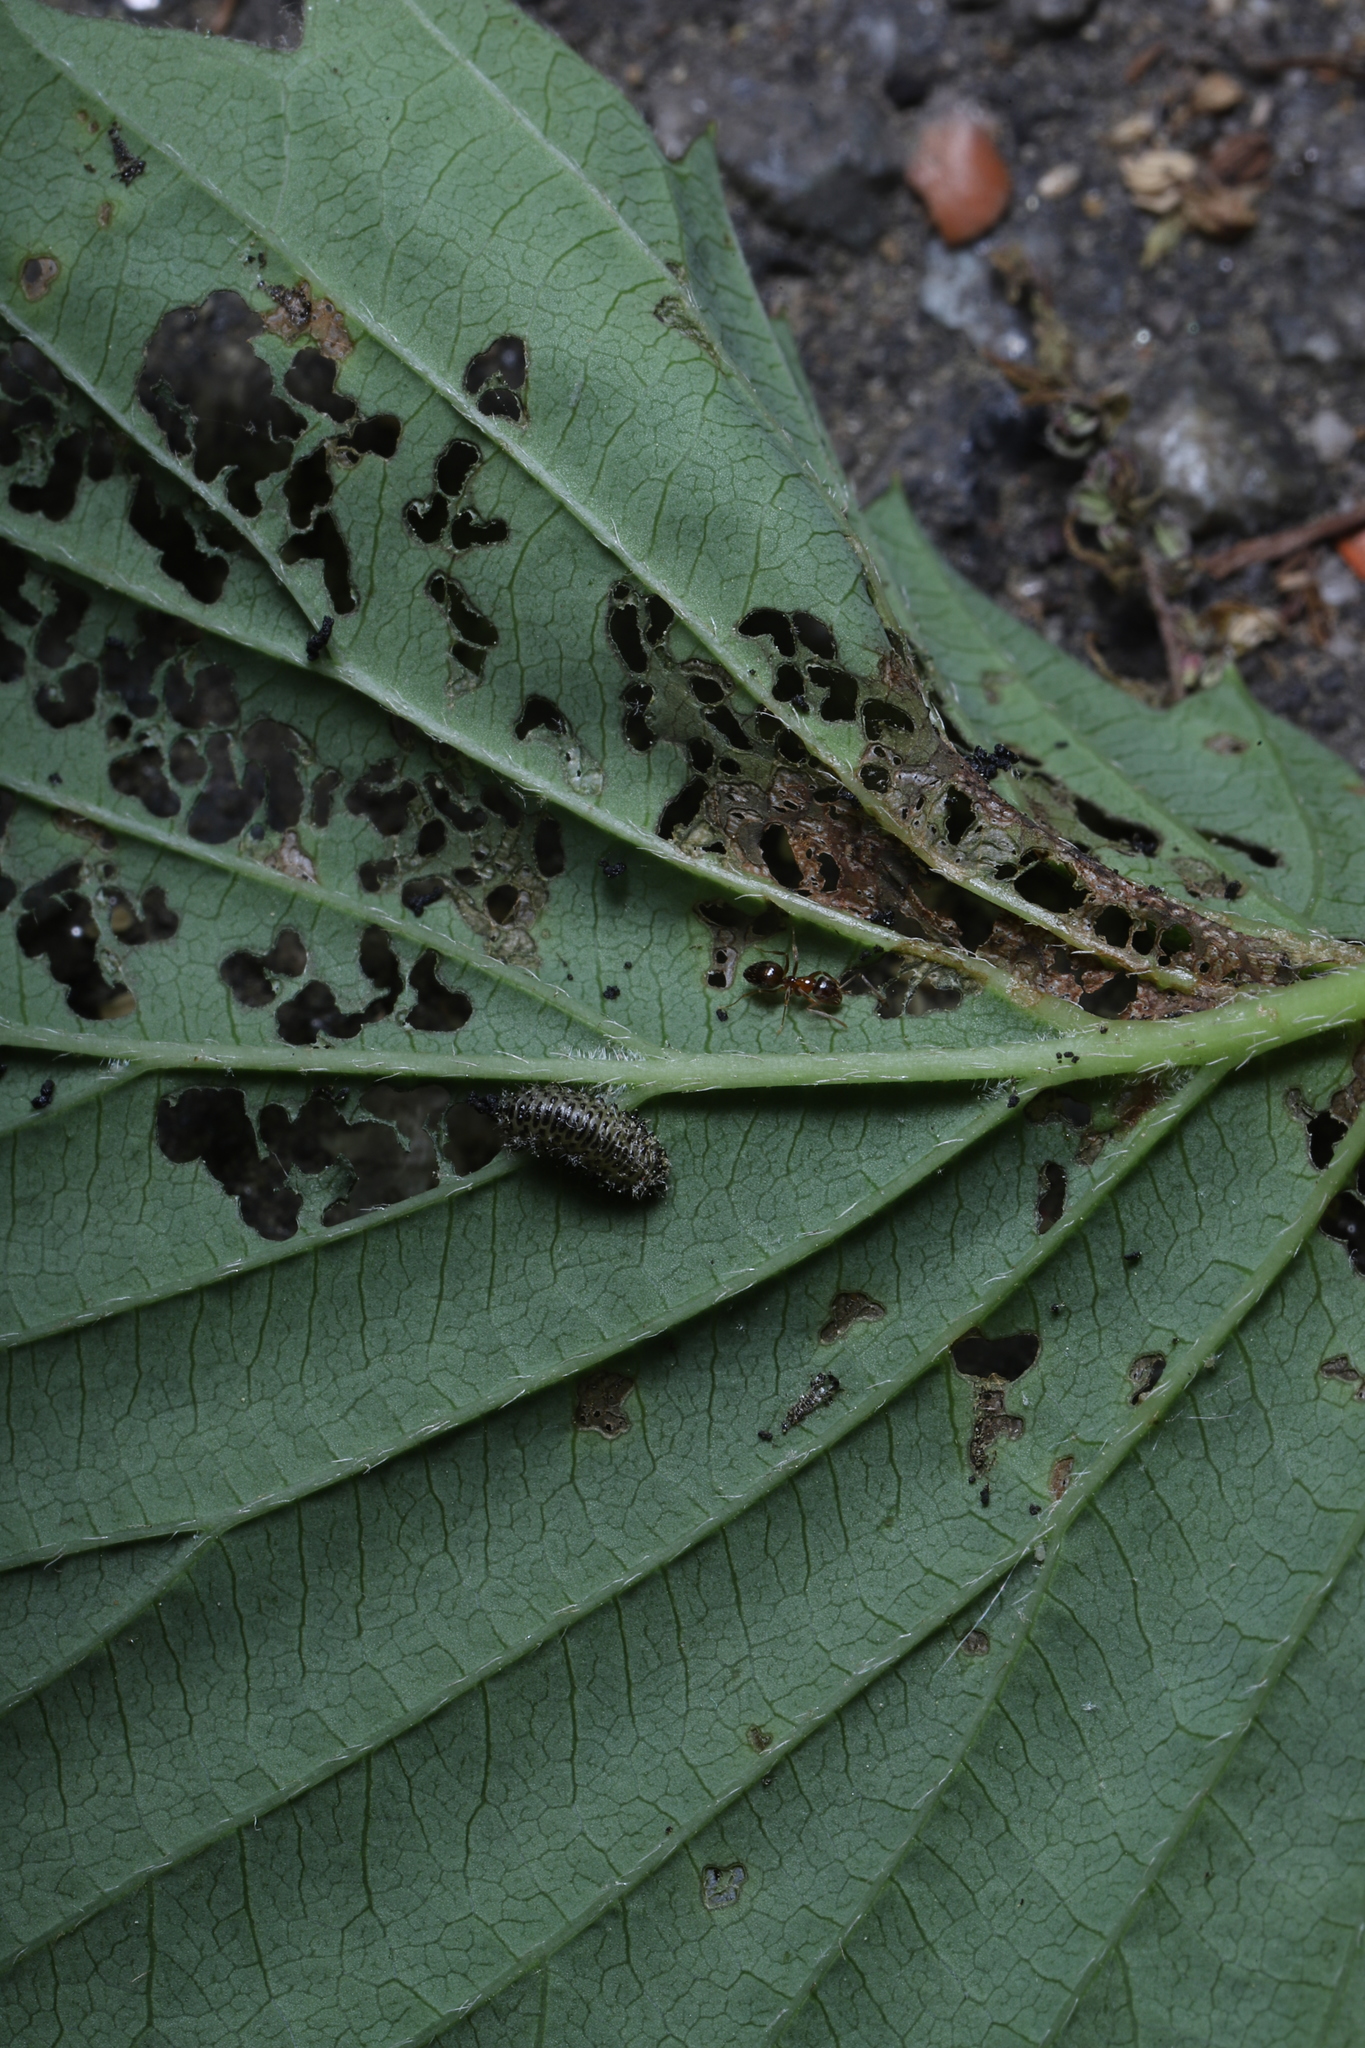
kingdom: Animalia
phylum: Arthropoda
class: Insecta
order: Coleoptera
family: Chrysomelidae
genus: Pyrrhalta
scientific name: Pyrrhalta viburni
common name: Guelder-rose leaf beetle
